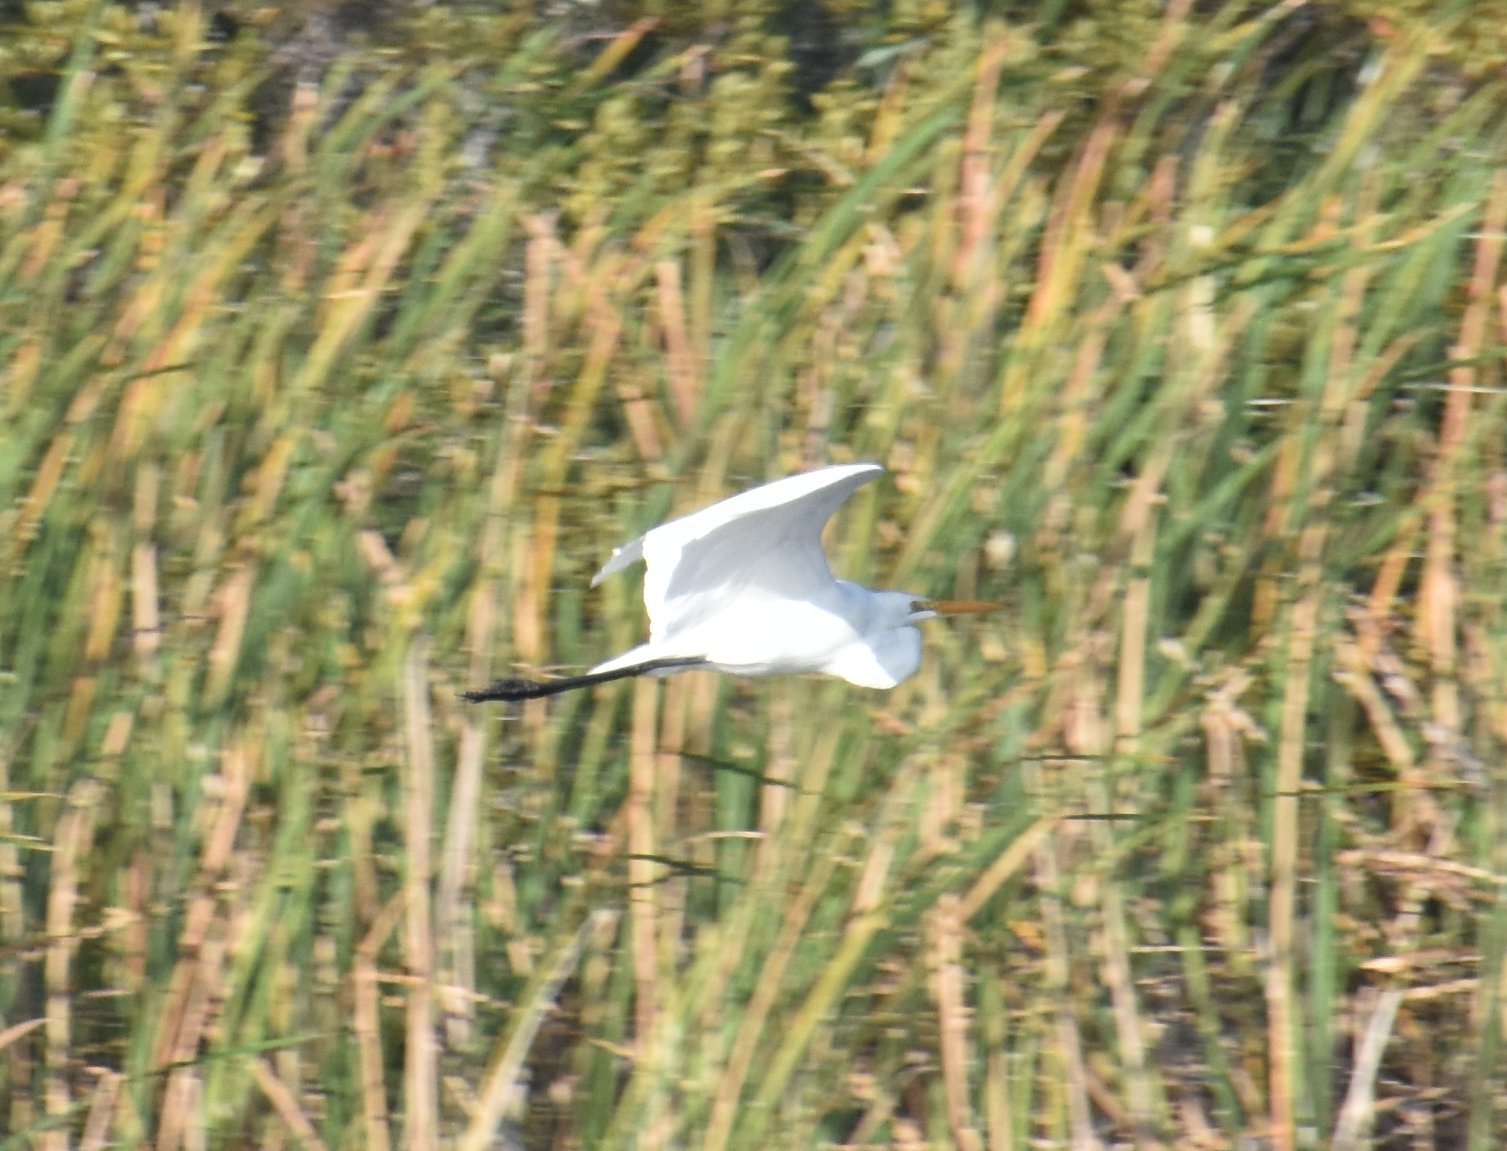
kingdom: Animalia
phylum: Chordata
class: Aves
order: Pelecaniformes
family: Ardeidae
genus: Ardea
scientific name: Ardea alba
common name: Great egret
